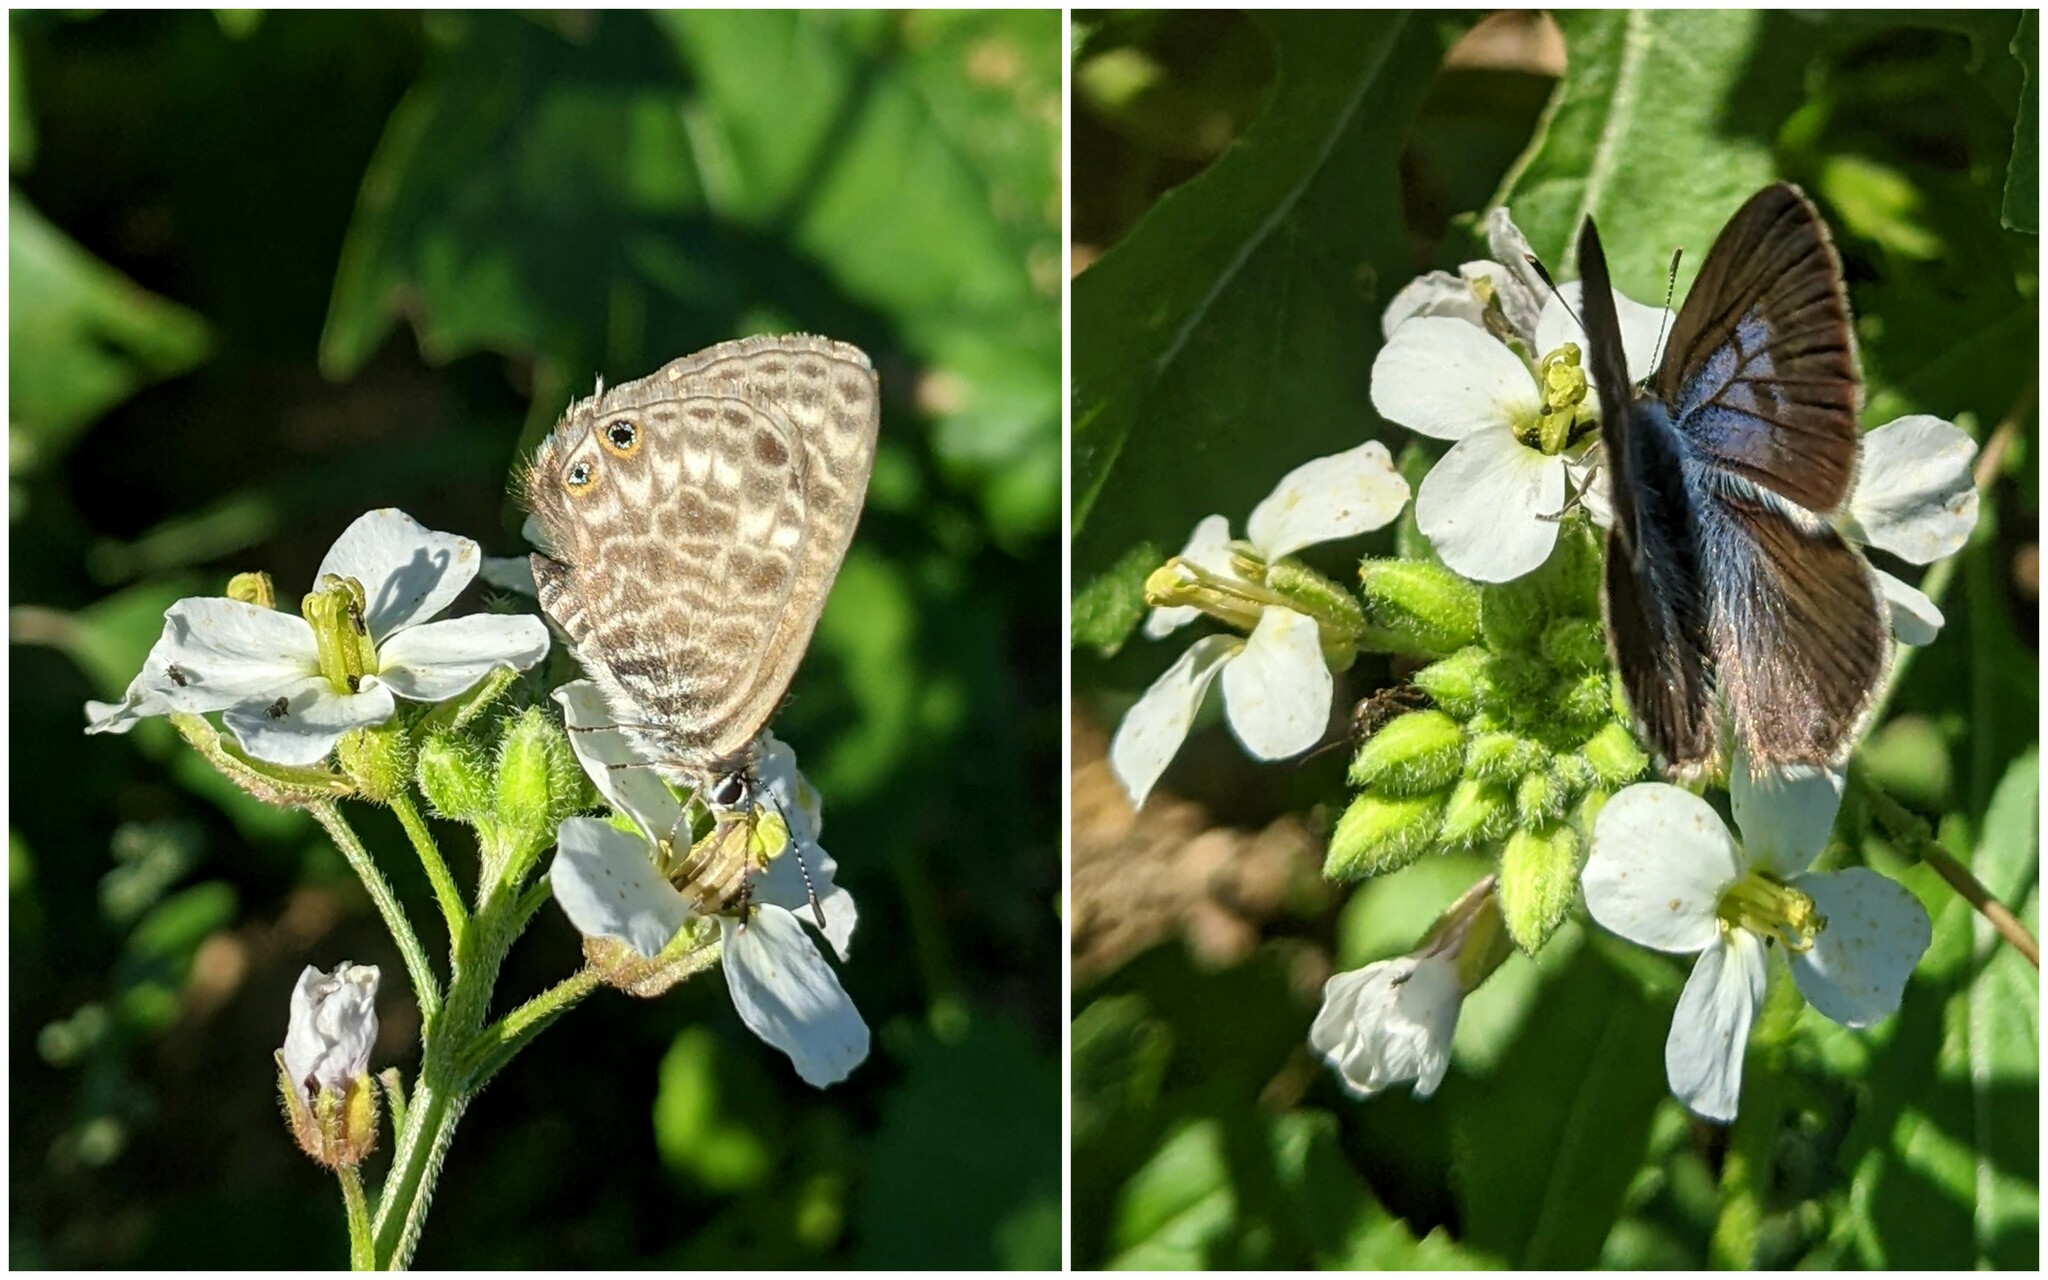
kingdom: Animalia
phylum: Arthropoda
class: Insecta
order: Lepidoptera
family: Lycaenidae
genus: Leptotes
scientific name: Leptotes pirithous
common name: Lang's short-tailed blue
